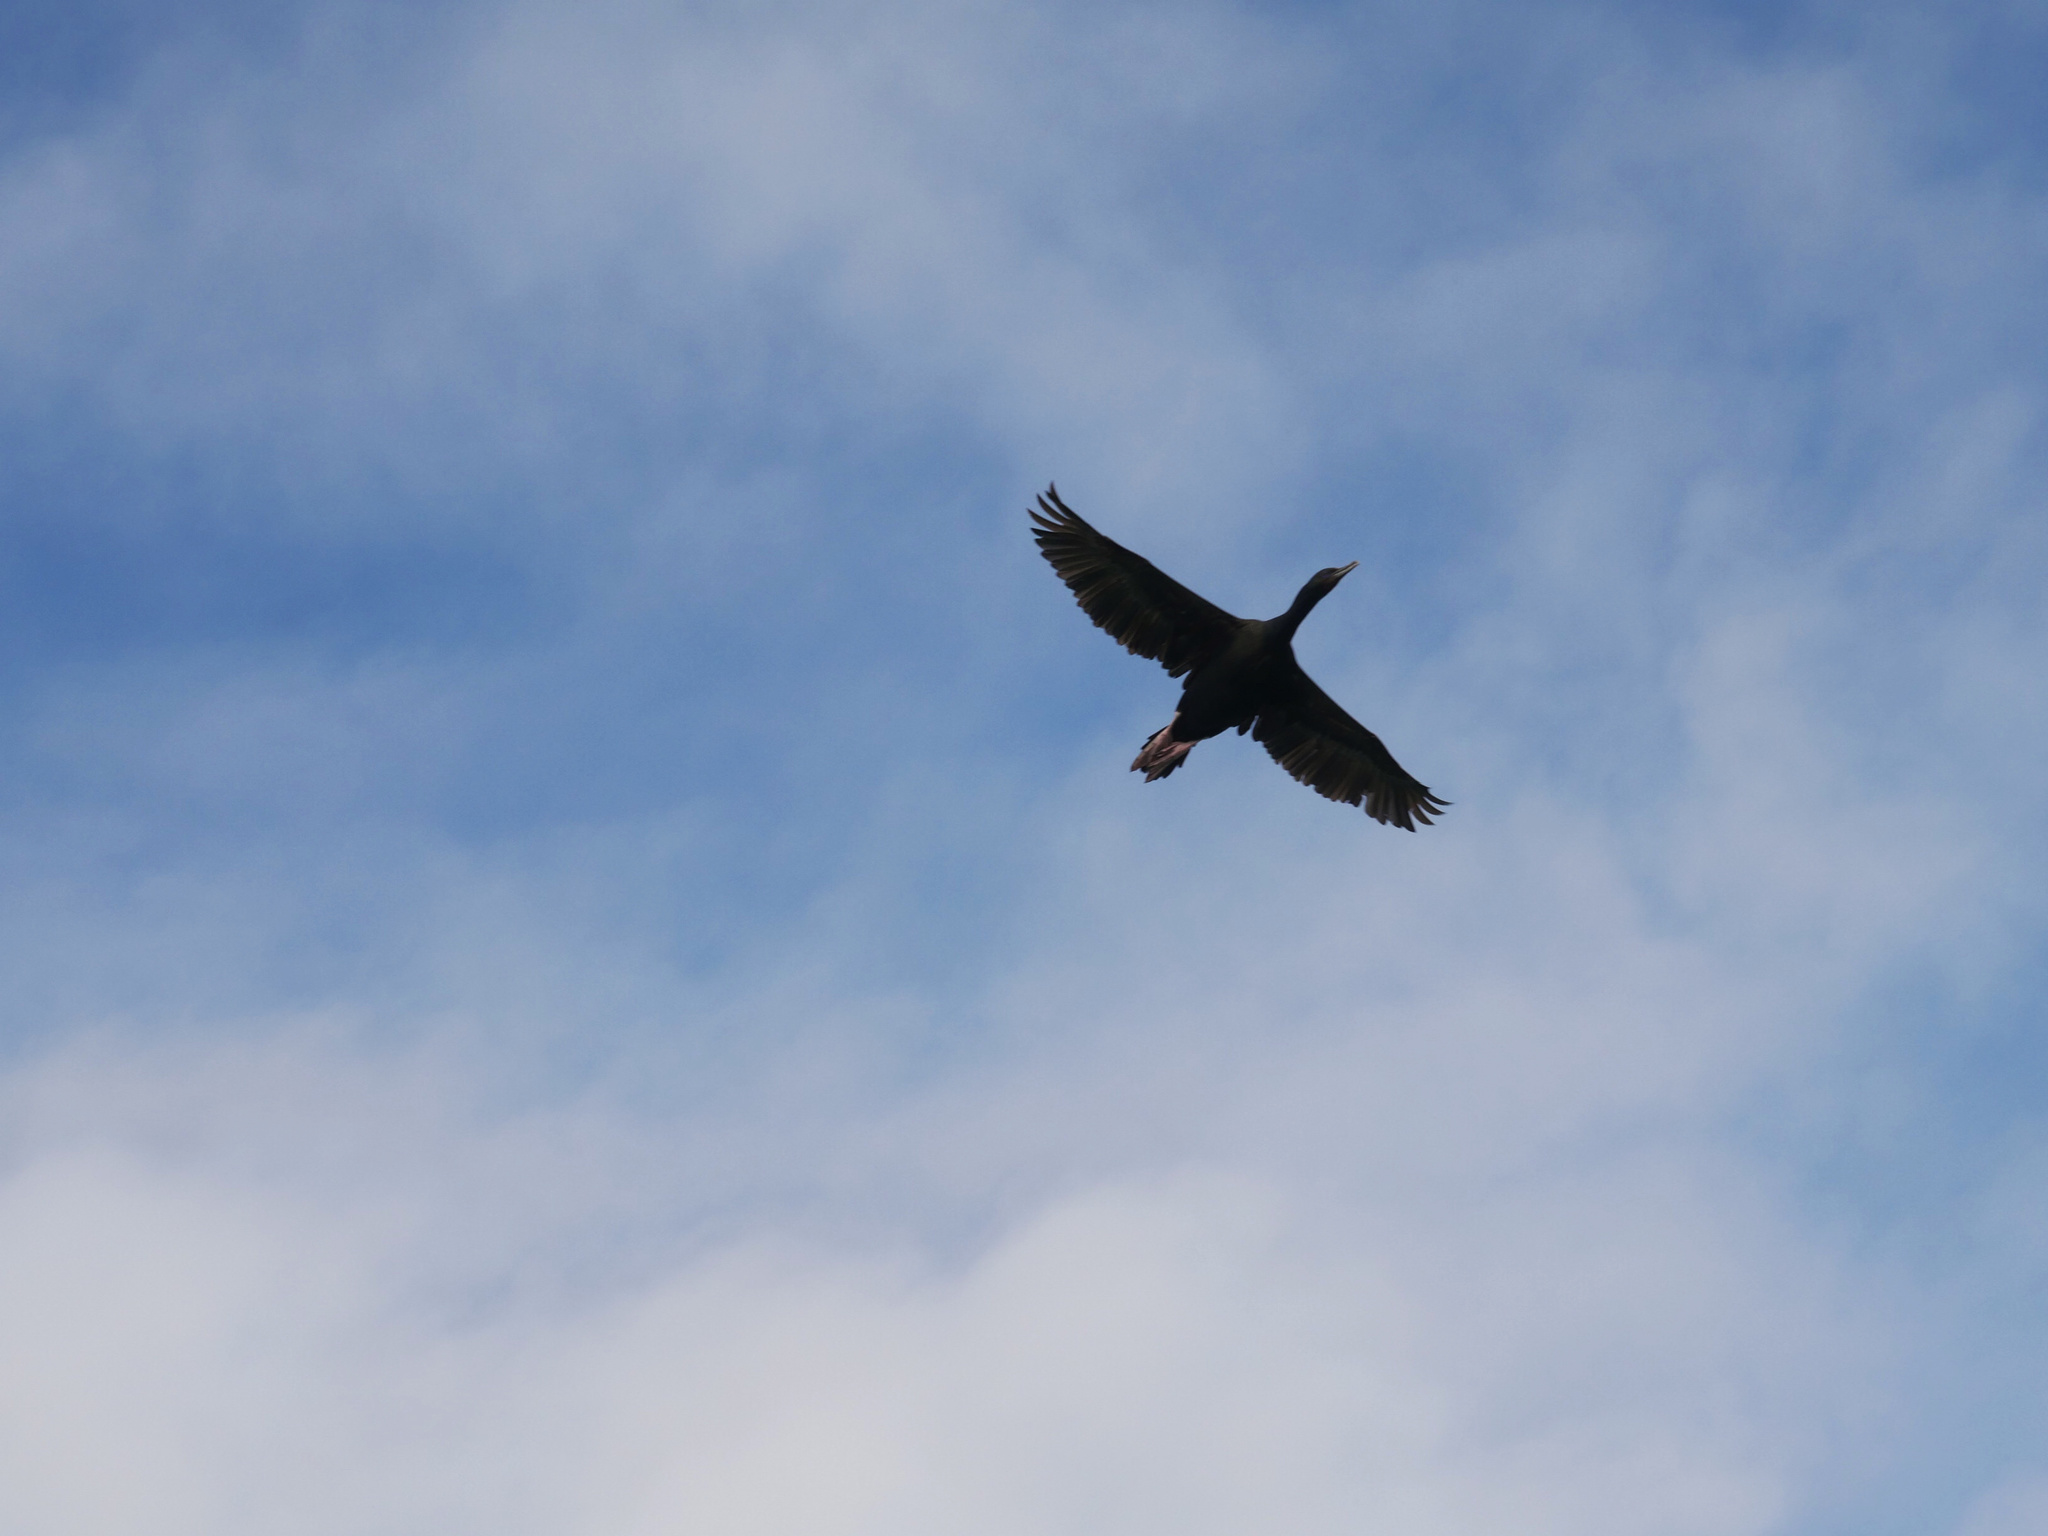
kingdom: Animalia
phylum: Chordata
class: Aves
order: Suliformes
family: Phalacrocoracidae
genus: Leucocarbo
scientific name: Leucocarbo chalconotus
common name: Stewart shag
